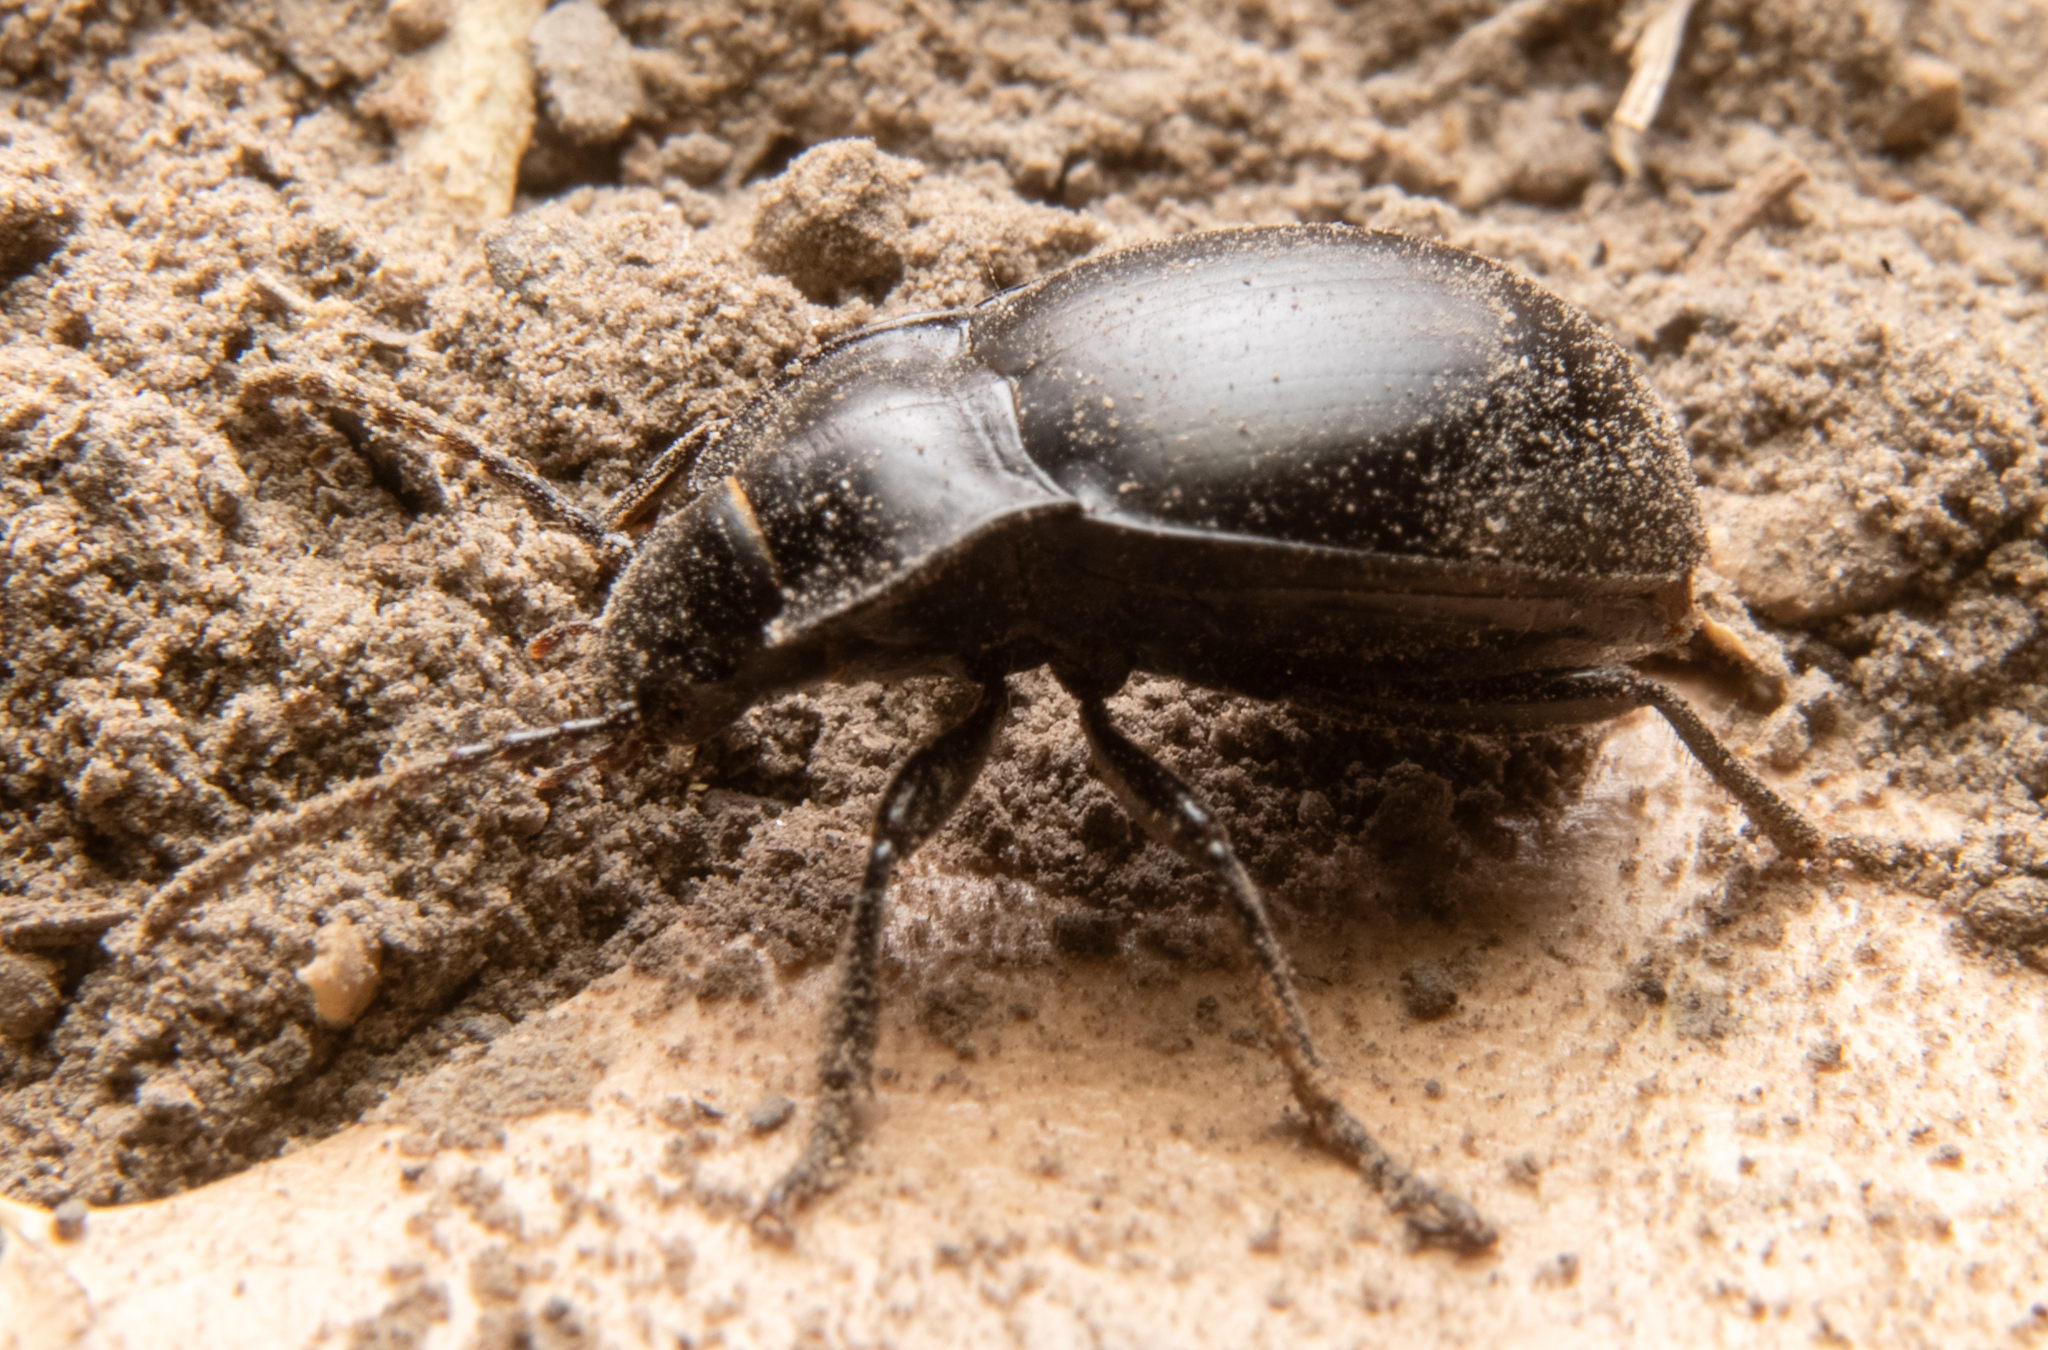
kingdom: Animalia
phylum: Arthropoda
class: Insecta
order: Coleoptera
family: Carabidae
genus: Metrius
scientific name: Metrius contractus
